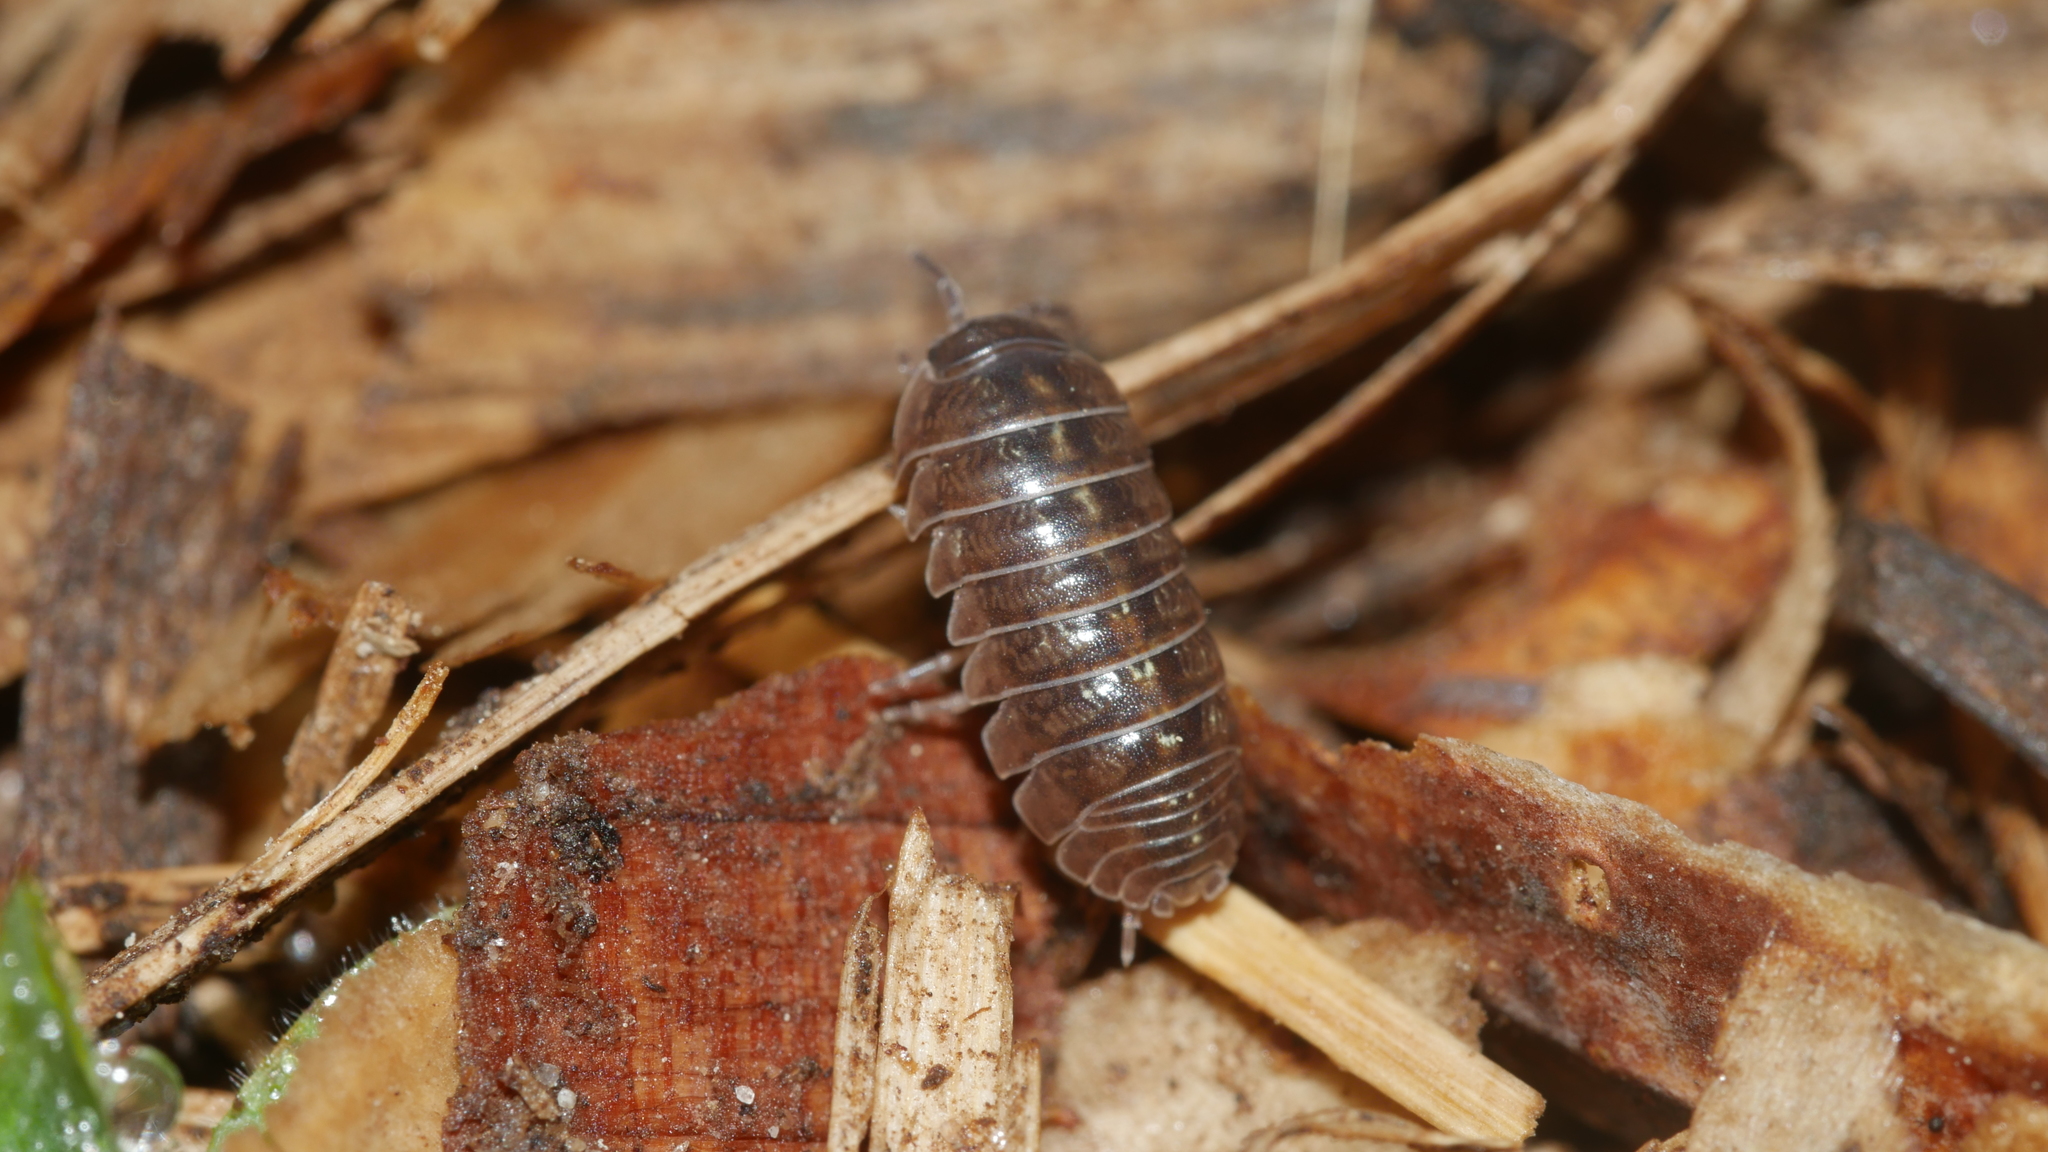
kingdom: Animalia
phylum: Arthropoda
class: Malacostraca
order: Isopoda
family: Armadillidiidae
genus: Armadillidium
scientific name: Armadillidium vulgare
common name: Common pill woodlouse
